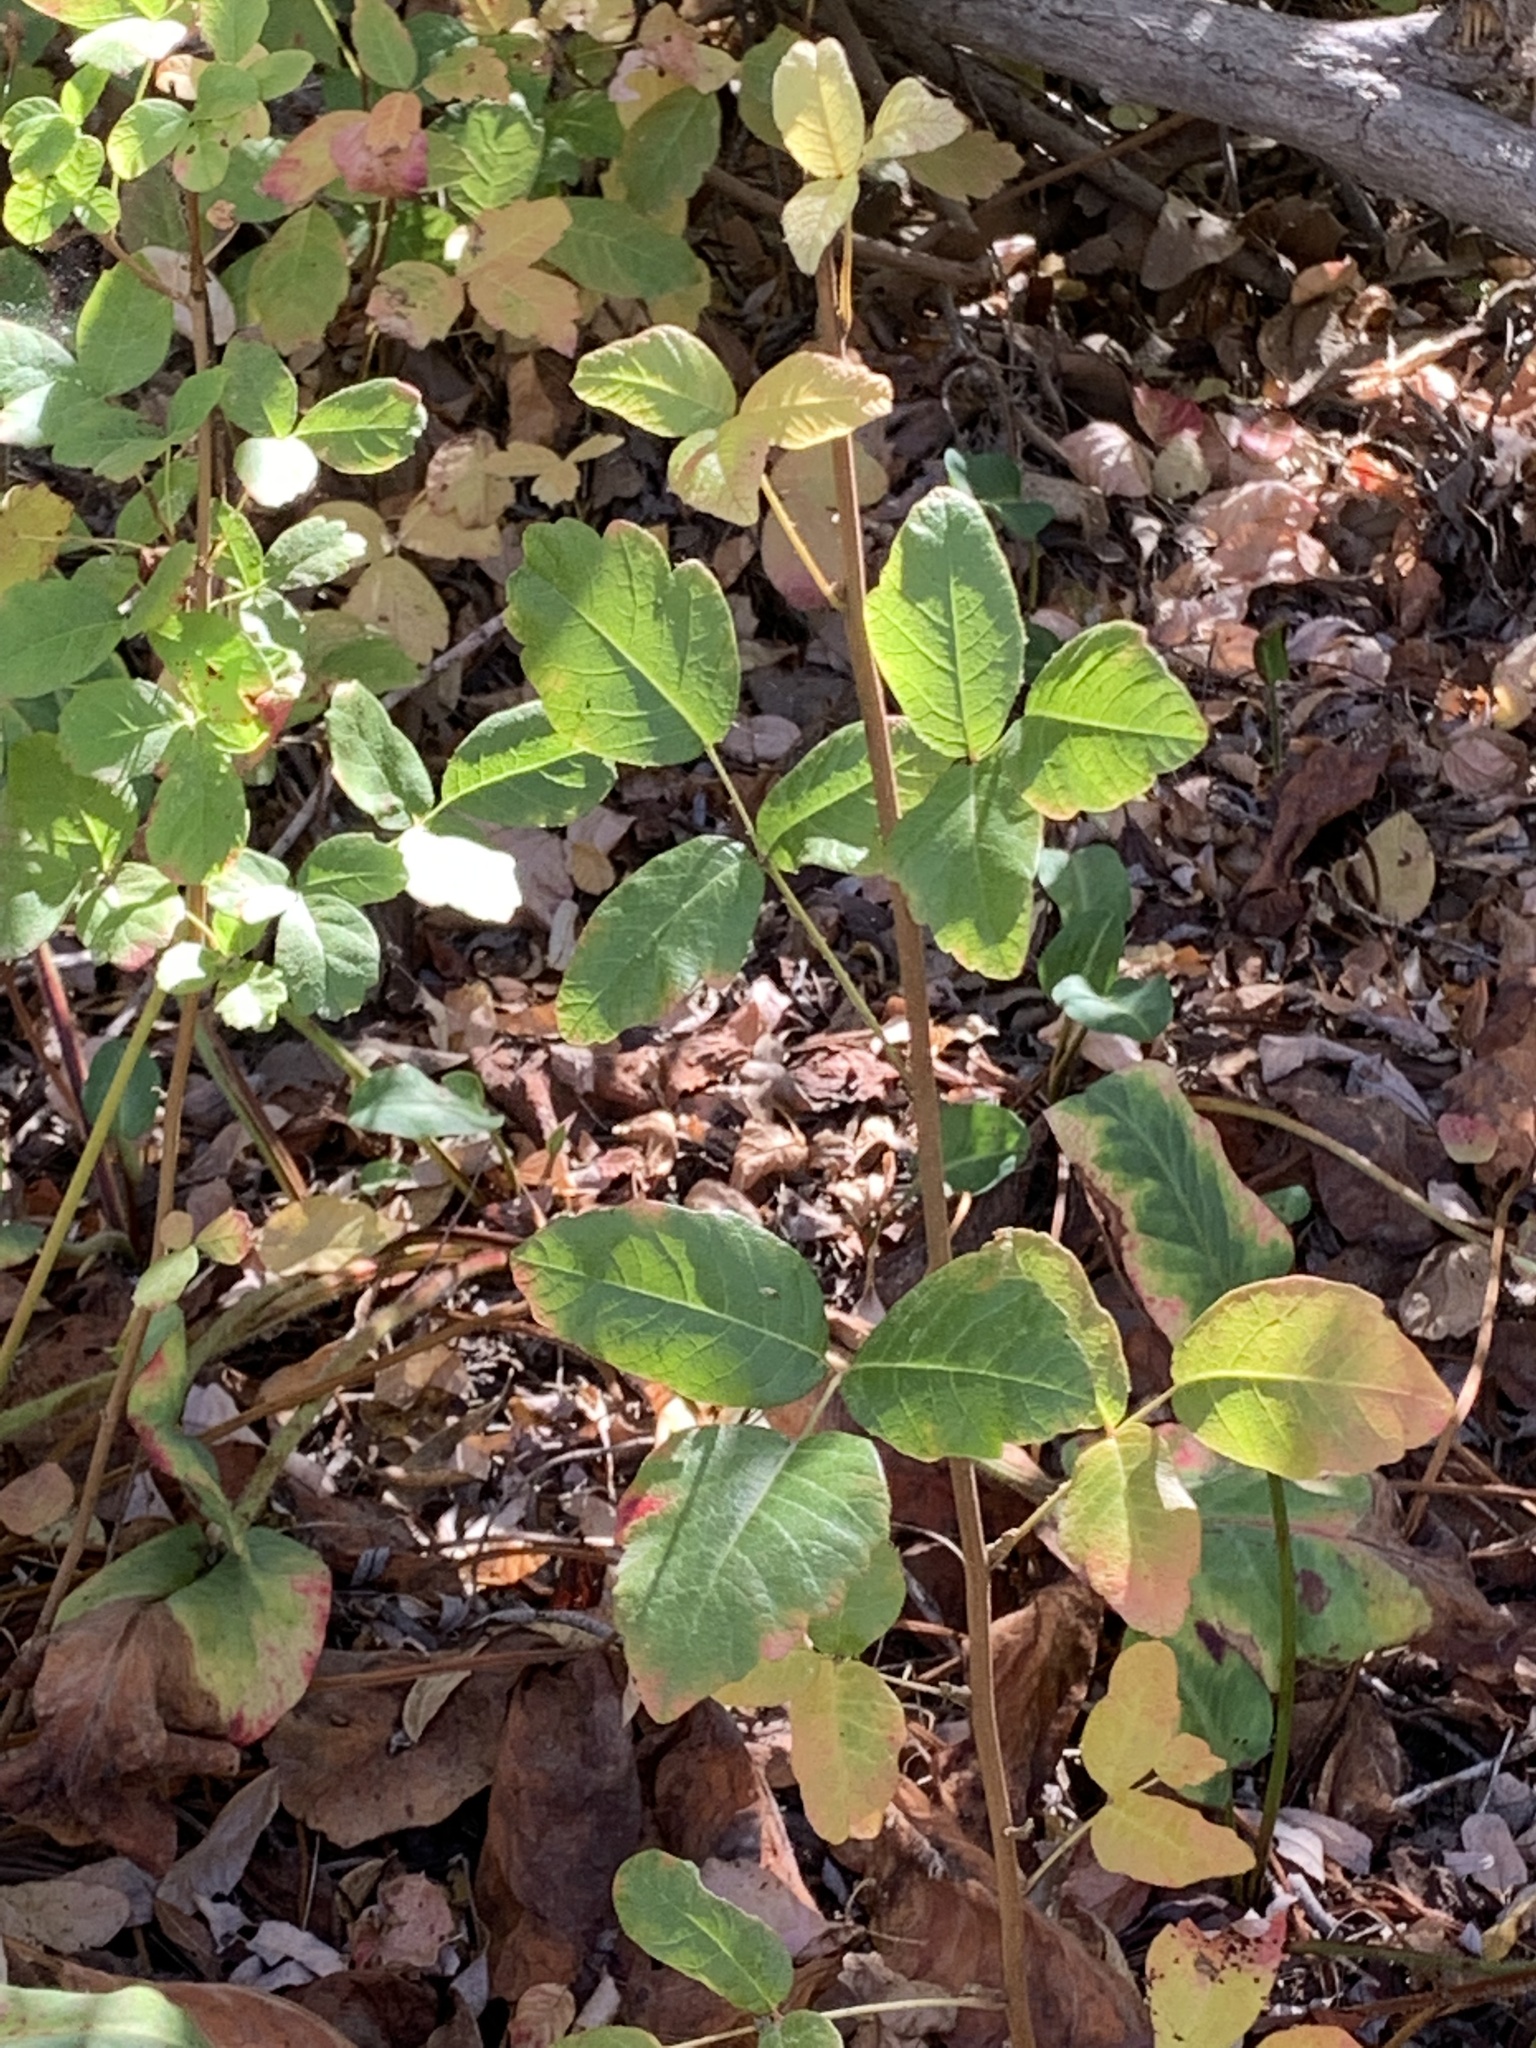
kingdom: Plantae
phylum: Tracheophyta
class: Magnoliopsida
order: Sapindales
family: Anacardiaceae
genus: Toxicodendron
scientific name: Toxicodendron diversilobum
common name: Pacific poison-oak
